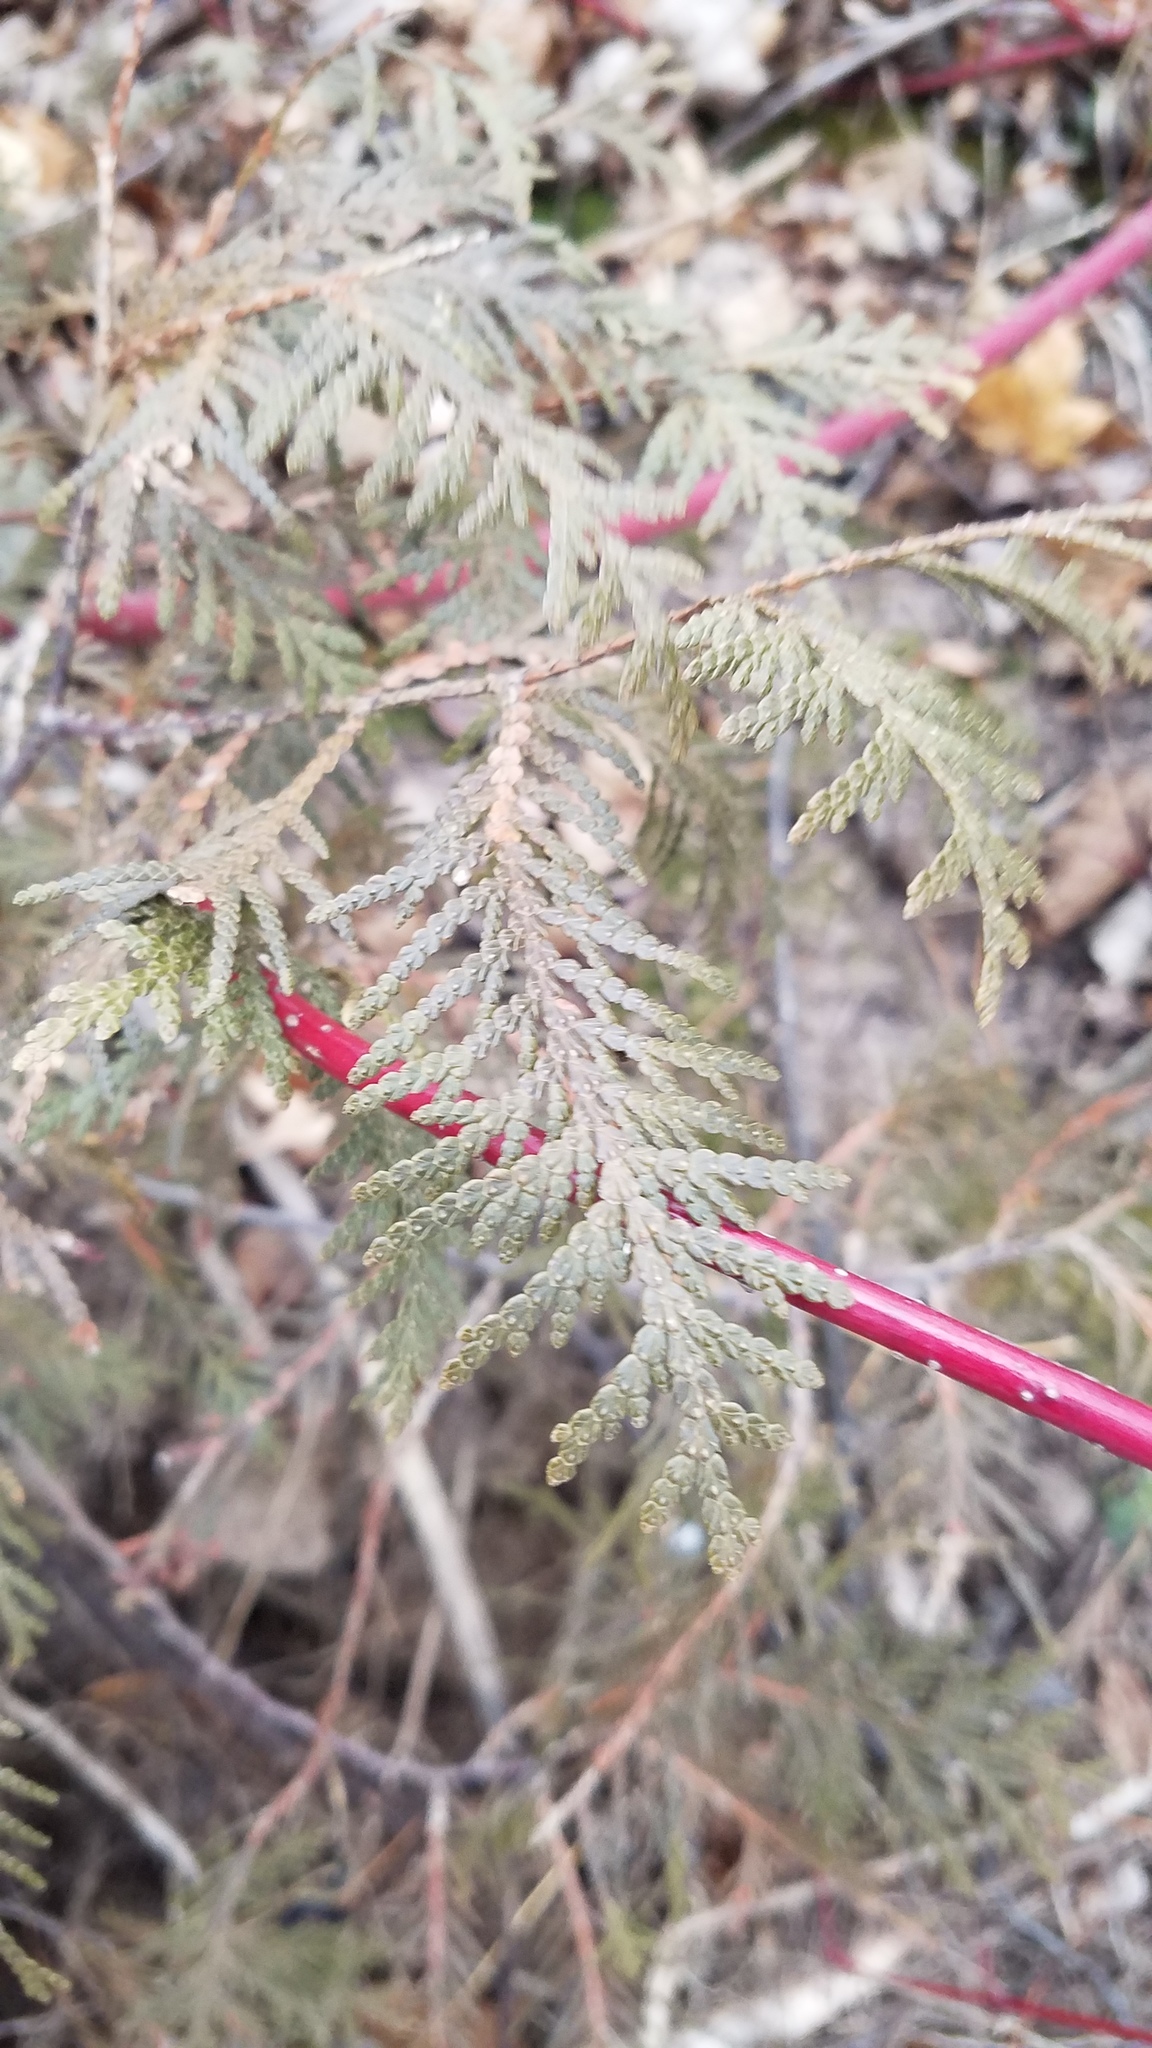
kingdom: Plantae
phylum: Tracheophyta
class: Pinopsida
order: Pinales
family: Cupressaceae
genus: Thuja
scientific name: Thuja occidentalis
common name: Northern white-cedar
